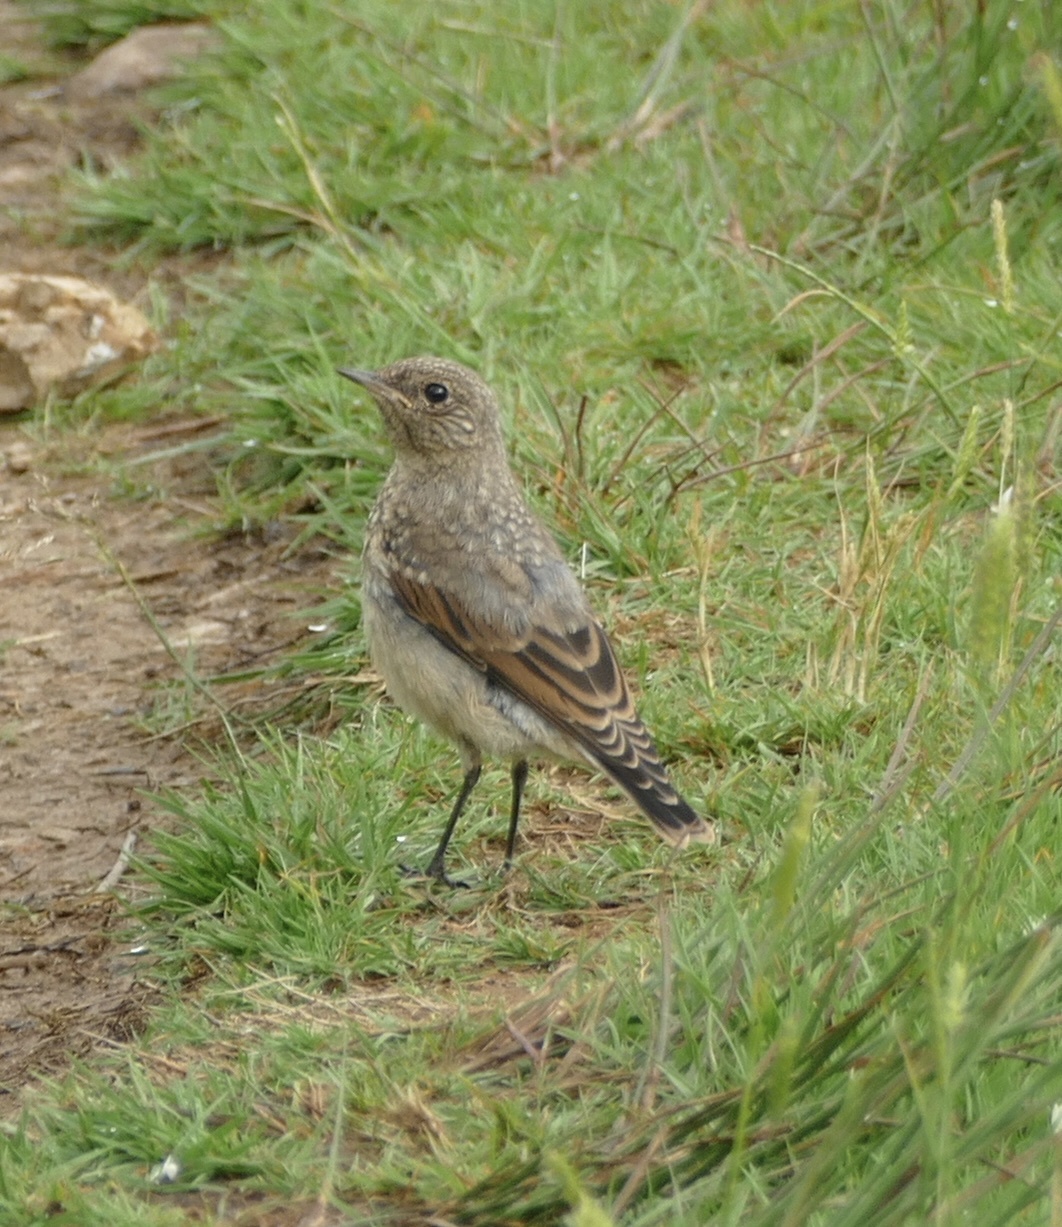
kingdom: Animalia
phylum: Chordata
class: Aves
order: Passeriformes
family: Muscicapidae
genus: Oenanthe
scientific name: Oenanthe oenanthe
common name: Northern wheatear
